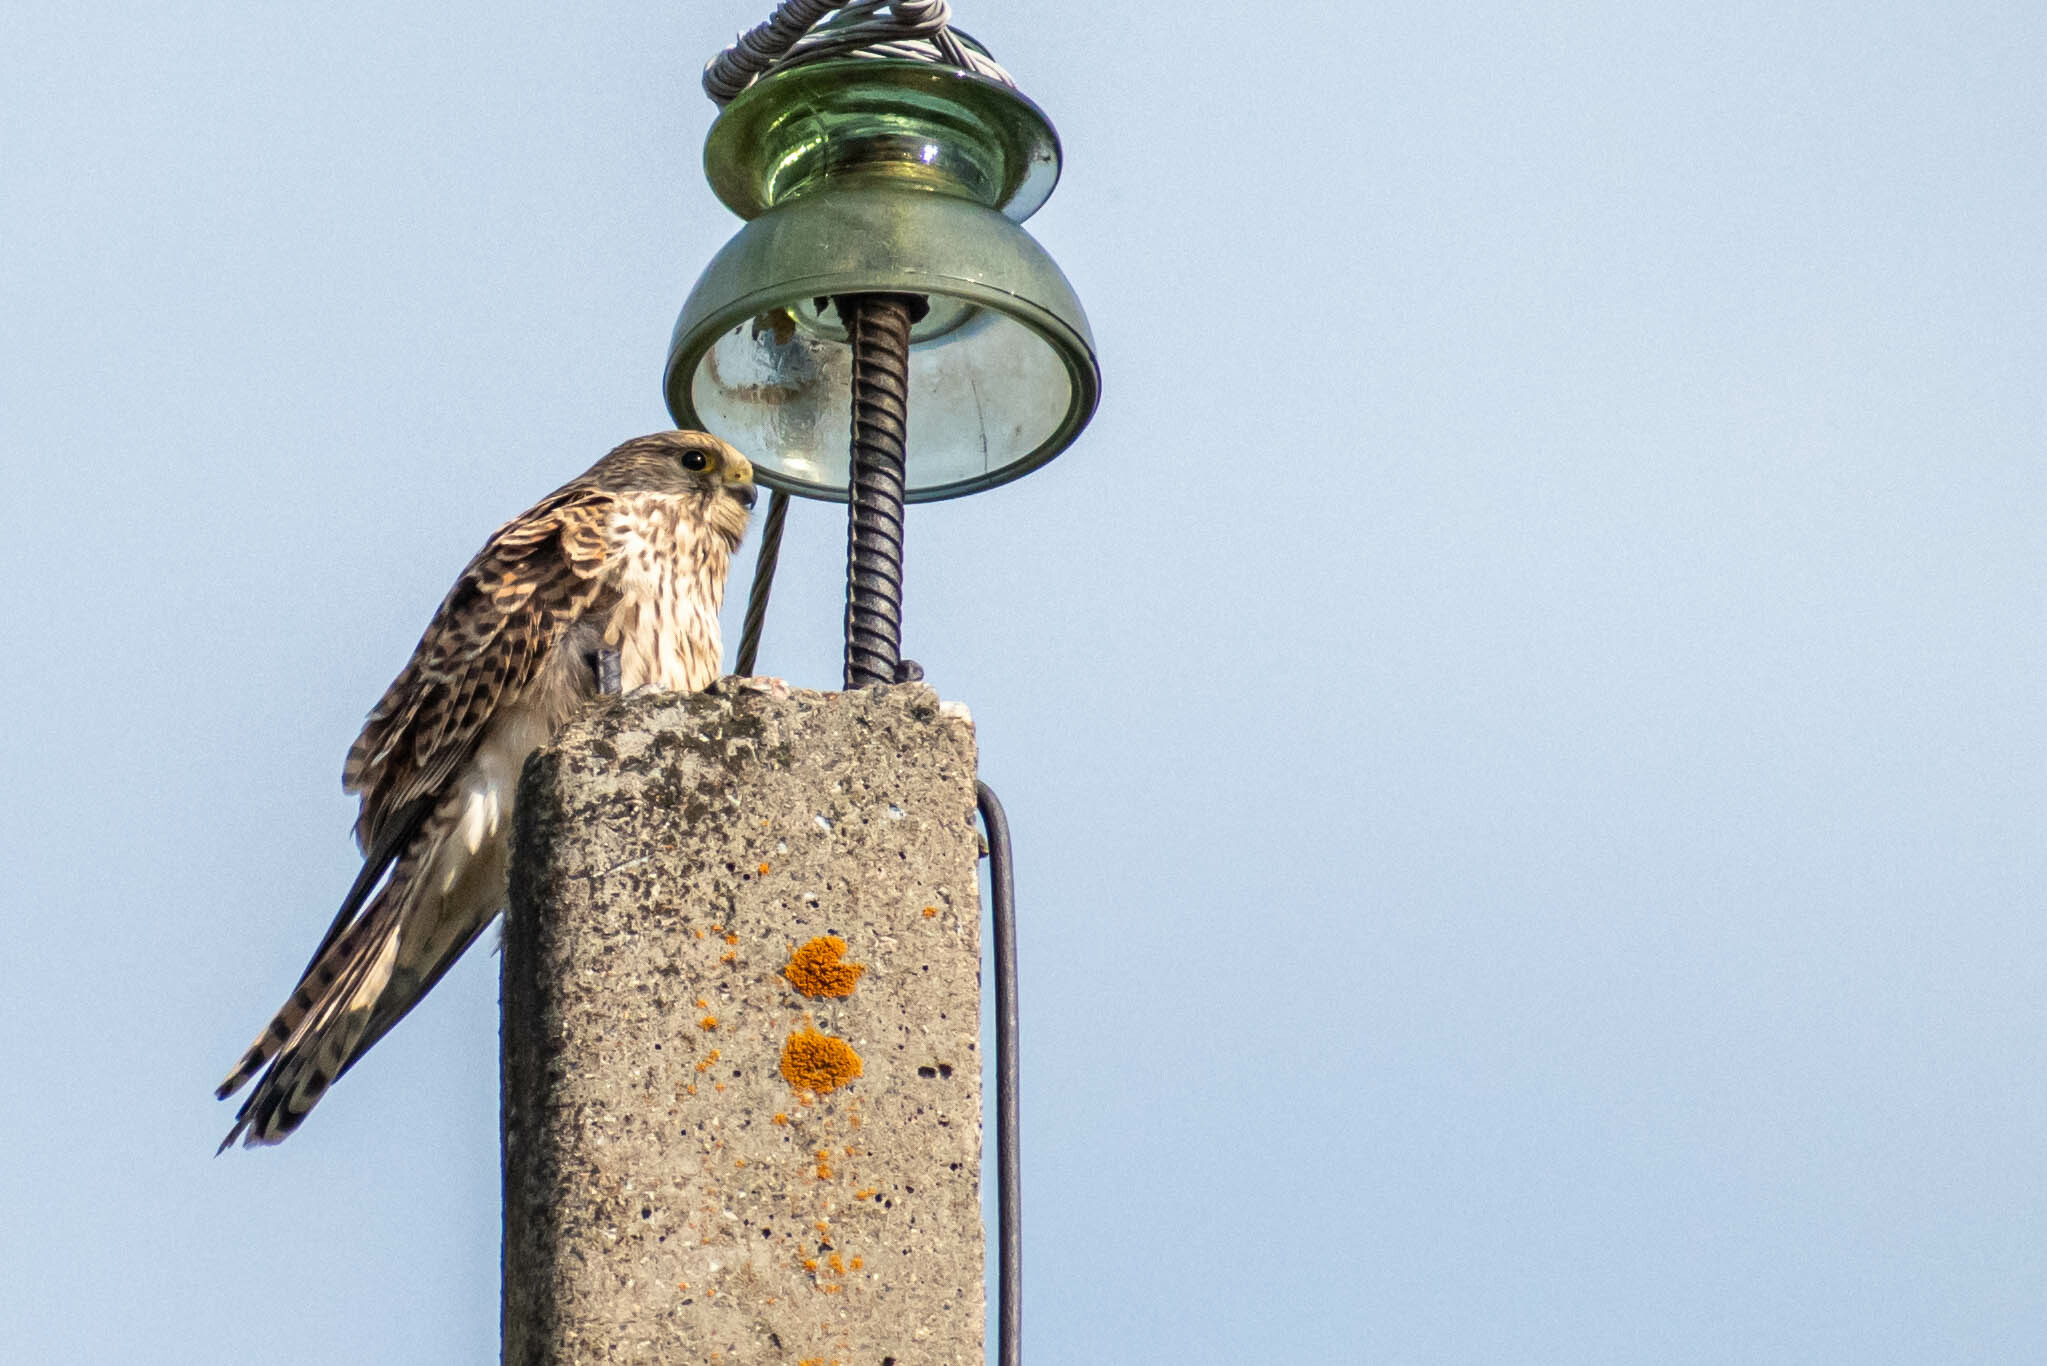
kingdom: Animalia
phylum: Chordata
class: Aves
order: Falconiformes
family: Falconidae
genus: Falco
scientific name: Falco tinnunculus
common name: Common kestrel
